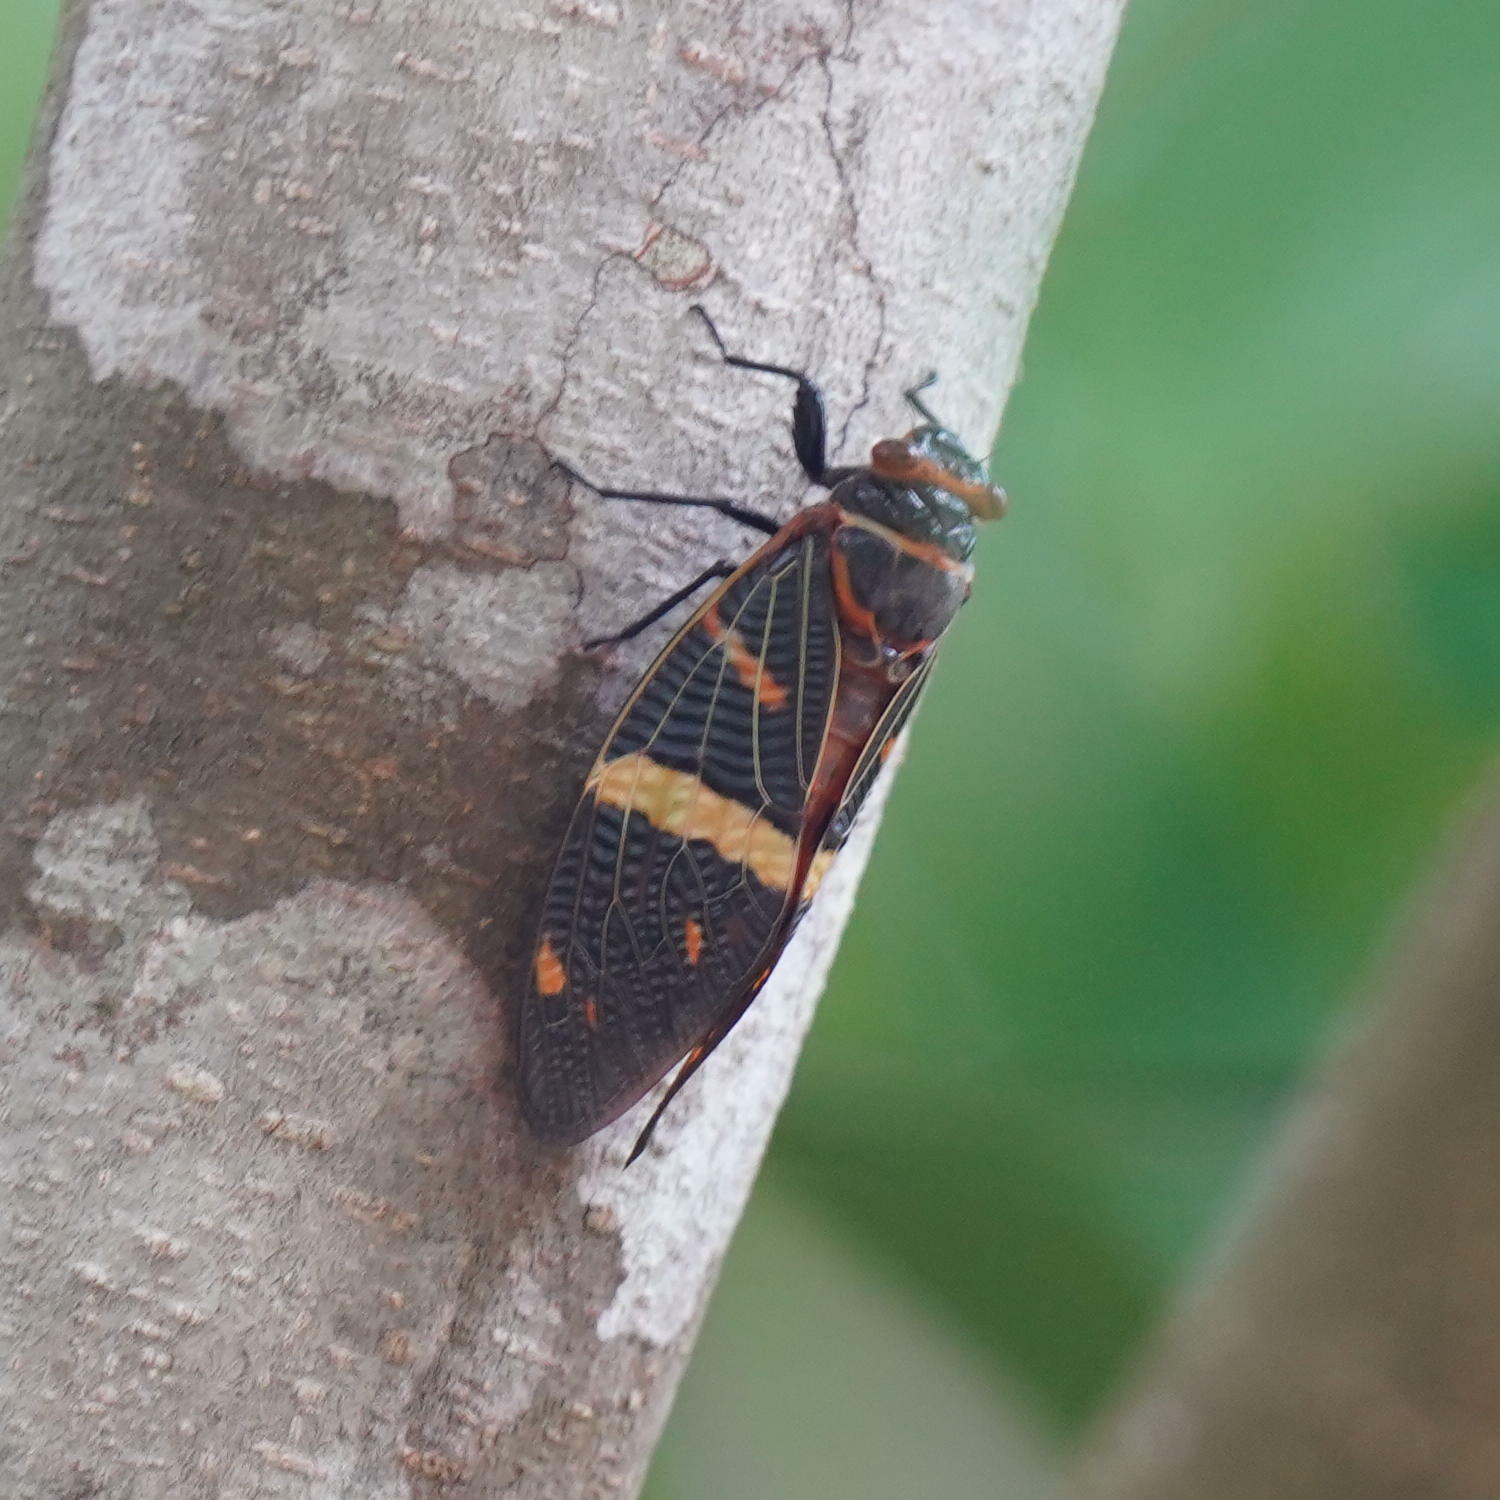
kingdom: Animalia
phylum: Arthropoda
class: Insecta
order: Hemiptera
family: Cicadidae
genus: Gaeana
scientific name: Gaeana atkinsoni
